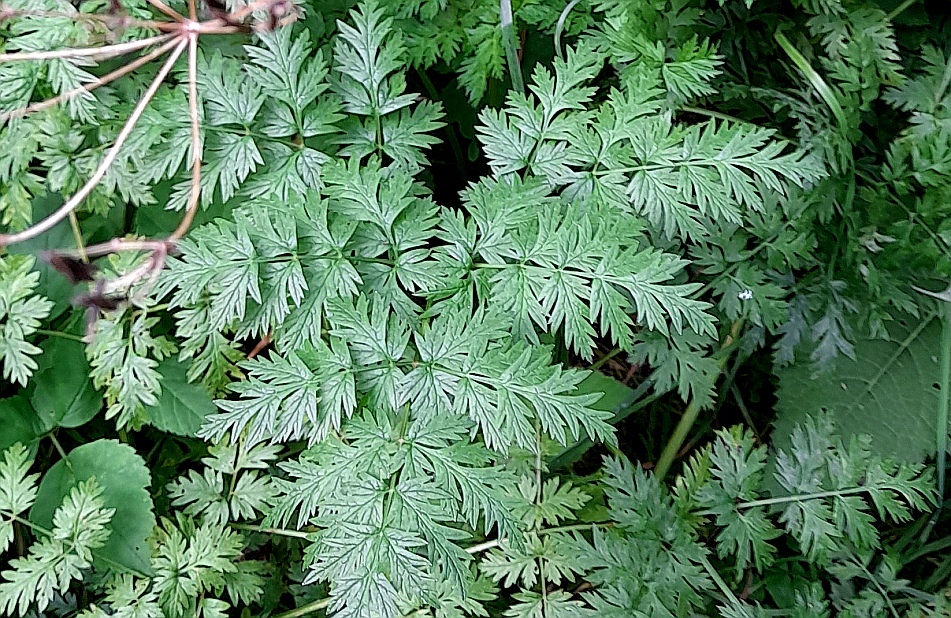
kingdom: Plantae
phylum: Tracheophyta
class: Magnoliopsida
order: Apiales
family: Apiaceae
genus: Anthriscus
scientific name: Anthriscus sylvestris
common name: Cow parsley
